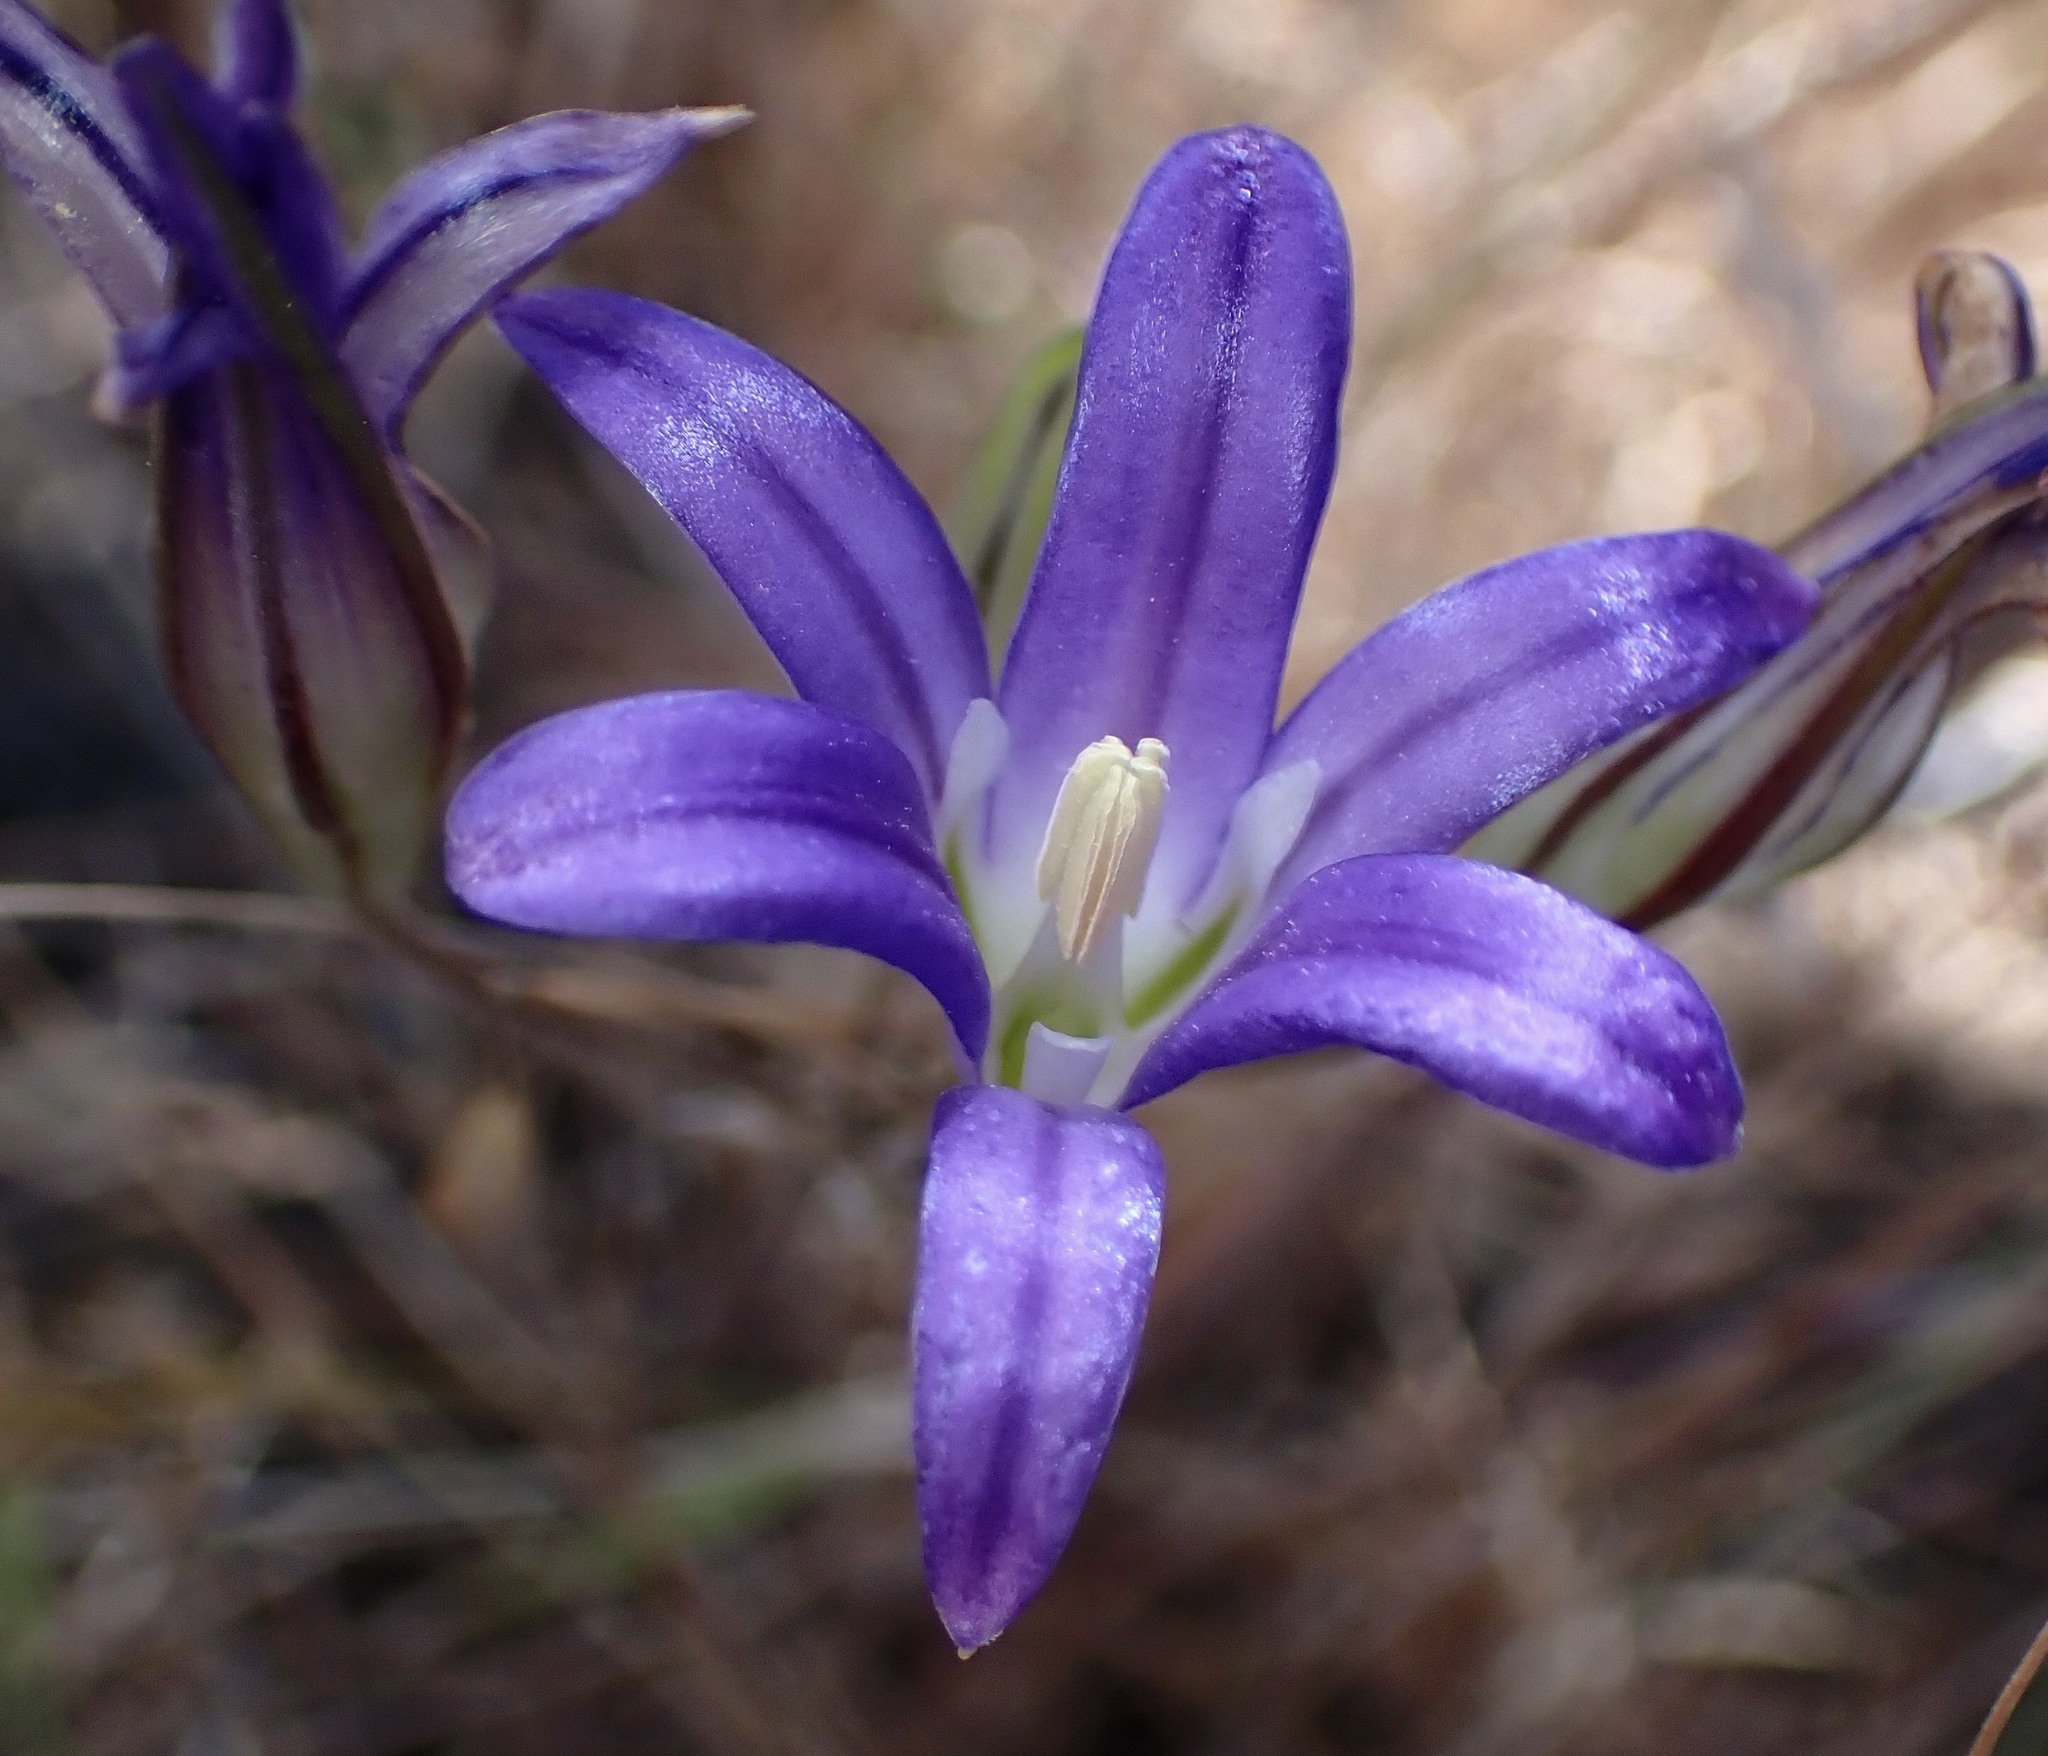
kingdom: Plantae
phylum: Tracheophyta
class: Liliopsida
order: Asparagales
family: Asparagaceae
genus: Brodiaea
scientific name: Brodiaea elegans
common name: Elegant cluster-lily
